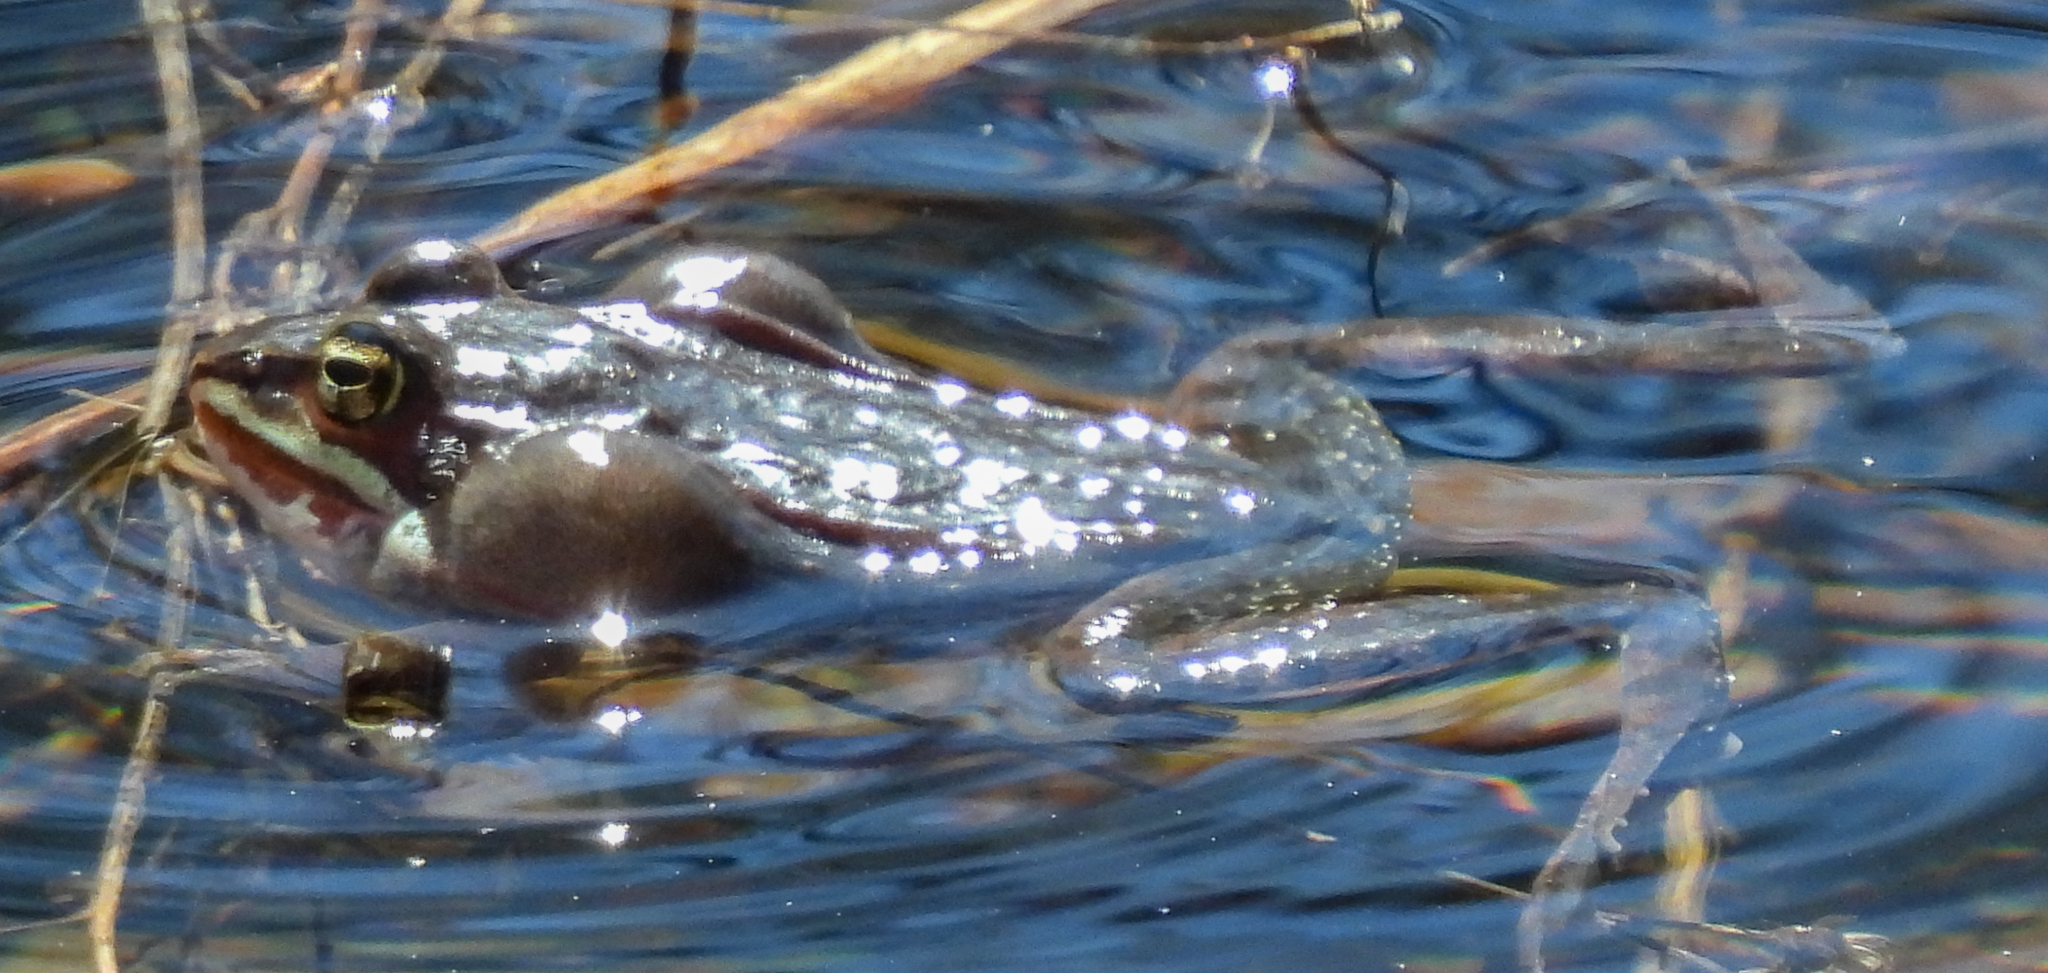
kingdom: Animalia
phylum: Chordata
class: Amphibia
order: Anura
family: Ranidae
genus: Lithobates
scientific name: Lithobates sylvaticus
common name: Wood frog
